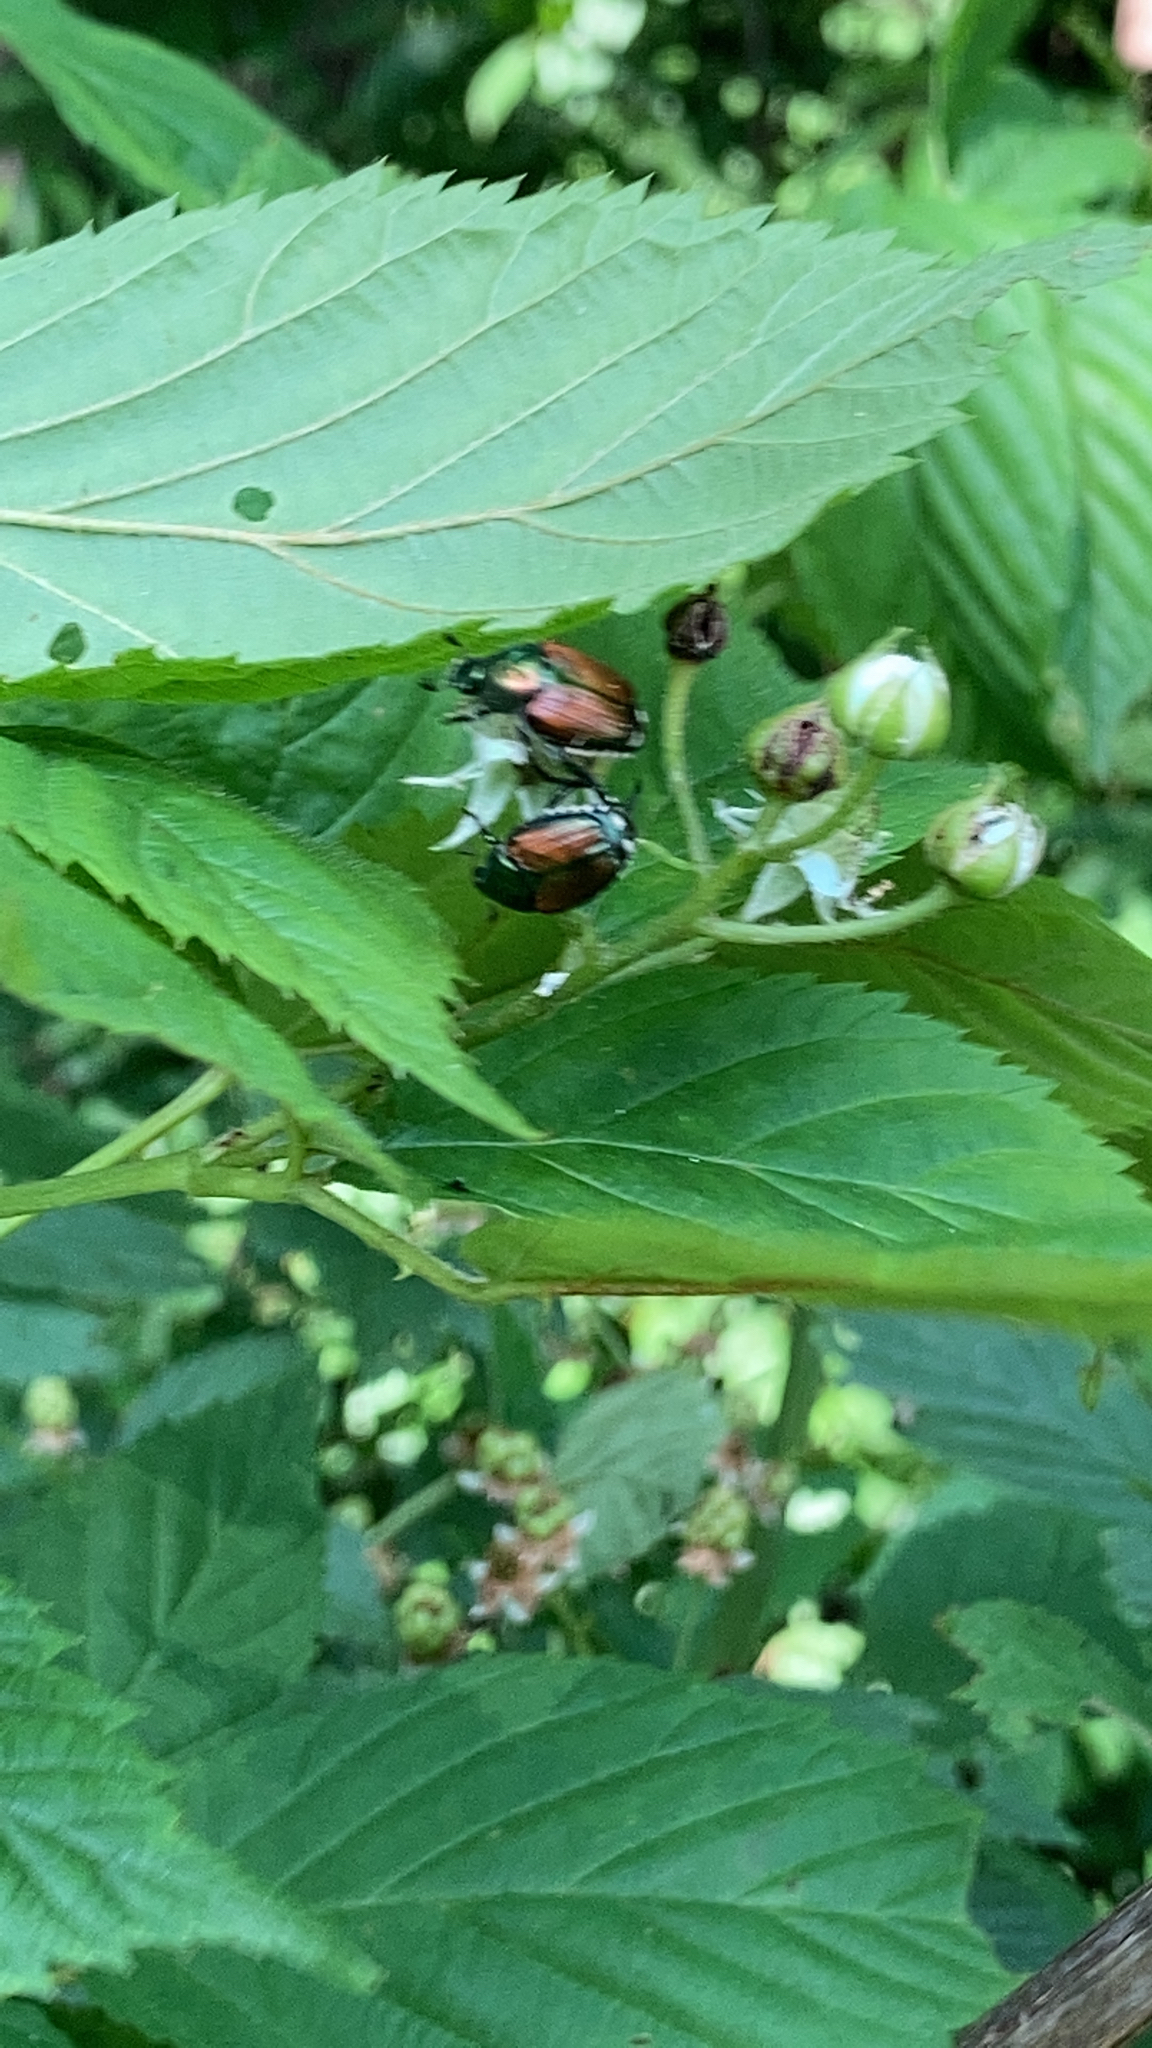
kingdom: Animalia
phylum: Arthropoda
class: Insecta
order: Coleoptera
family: Scarabaeidae
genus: Popillia
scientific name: Popillia japonica
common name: Japanese beetle
